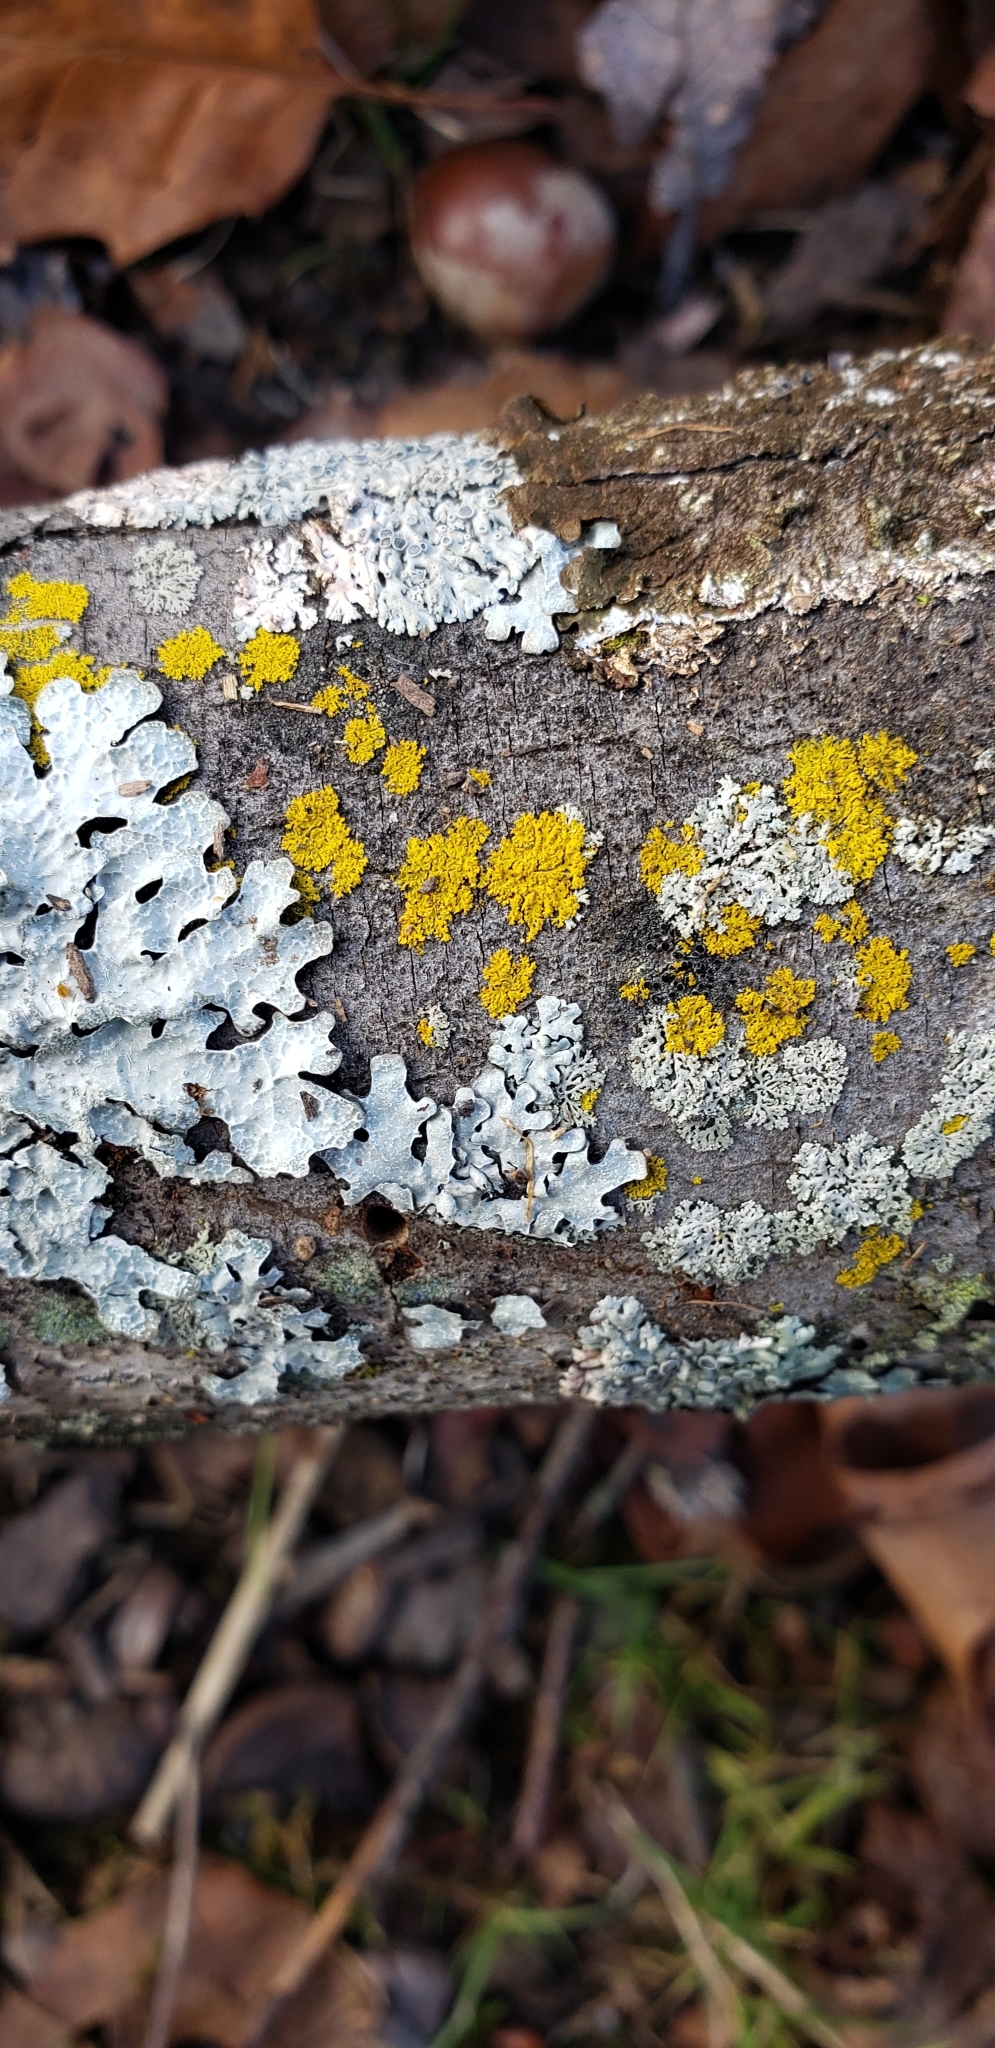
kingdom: Fungi
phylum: Ascomycota
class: Candelariomycetes
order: Candelariales
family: Candelariaceae
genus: Candelaria
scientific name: Candelaria concolor
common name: Candleflame lichen
